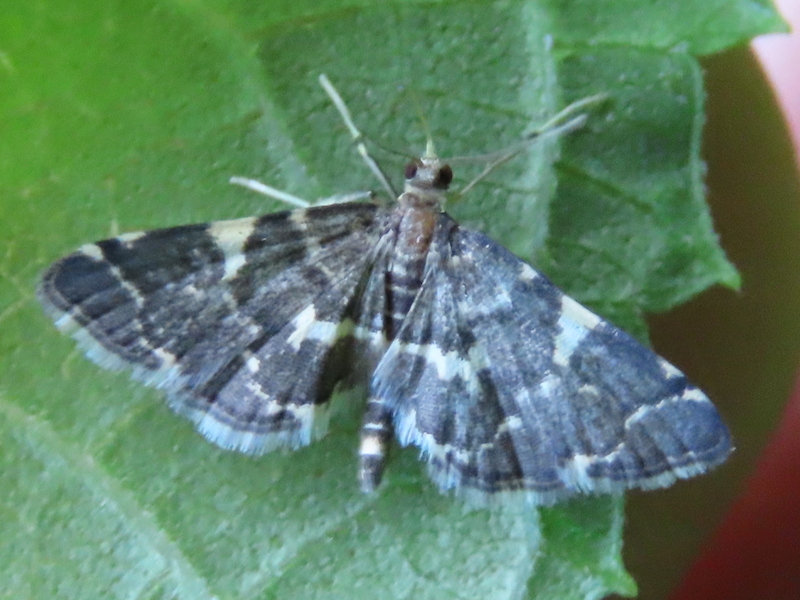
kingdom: Animalia
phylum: Arthropoda
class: Insecta
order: Lepidoptera
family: Crambidae
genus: Anageshna
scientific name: Anageshna primordialis
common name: Yellow-spotted webworm moth
